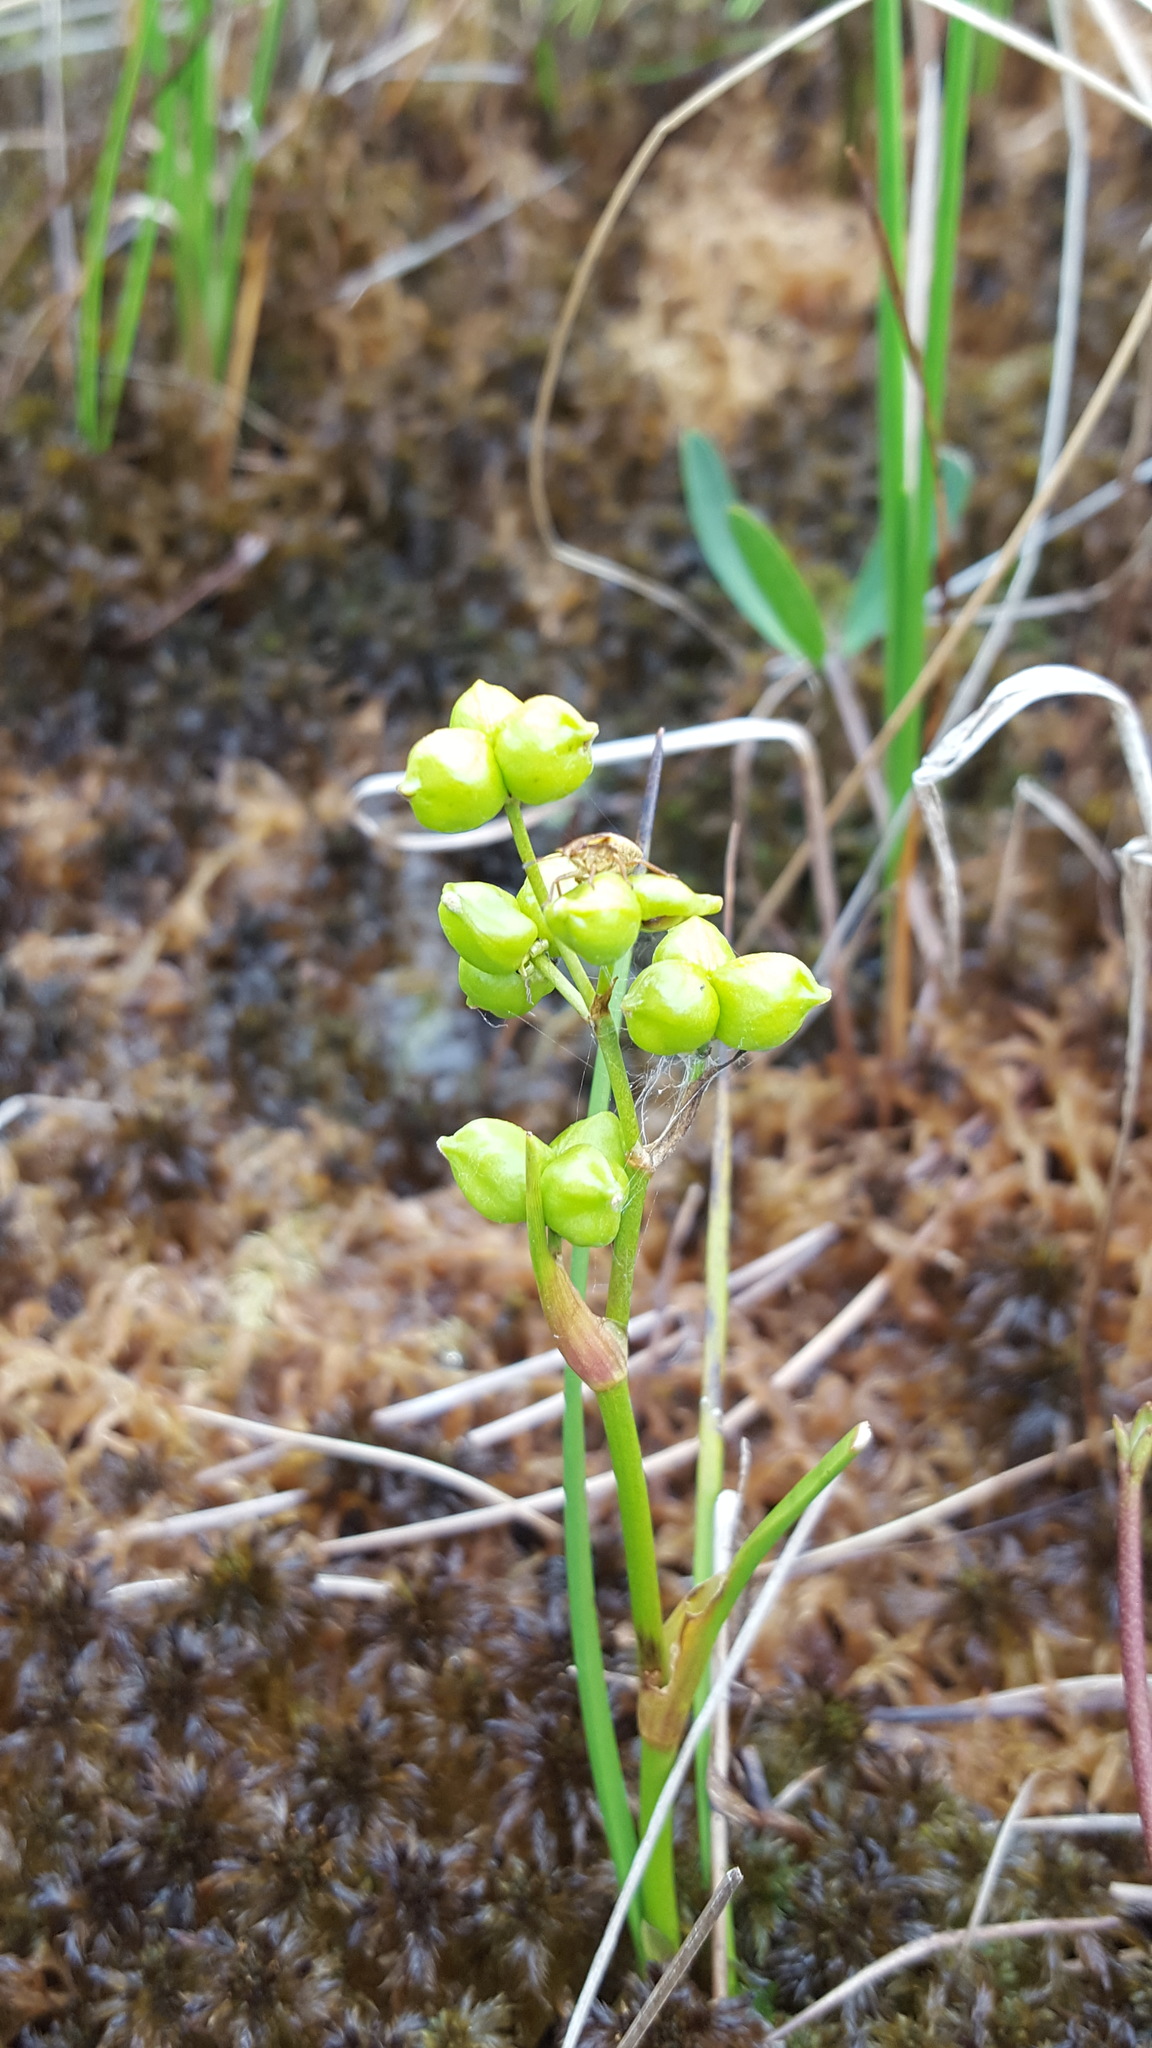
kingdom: Plantae
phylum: Tracheophyta
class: Liliopsida
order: Alismatales
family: Scheuchzeriaceae
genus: Scheuchzeria
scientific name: Scheuchzeria palustris
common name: Rannoch-rush
